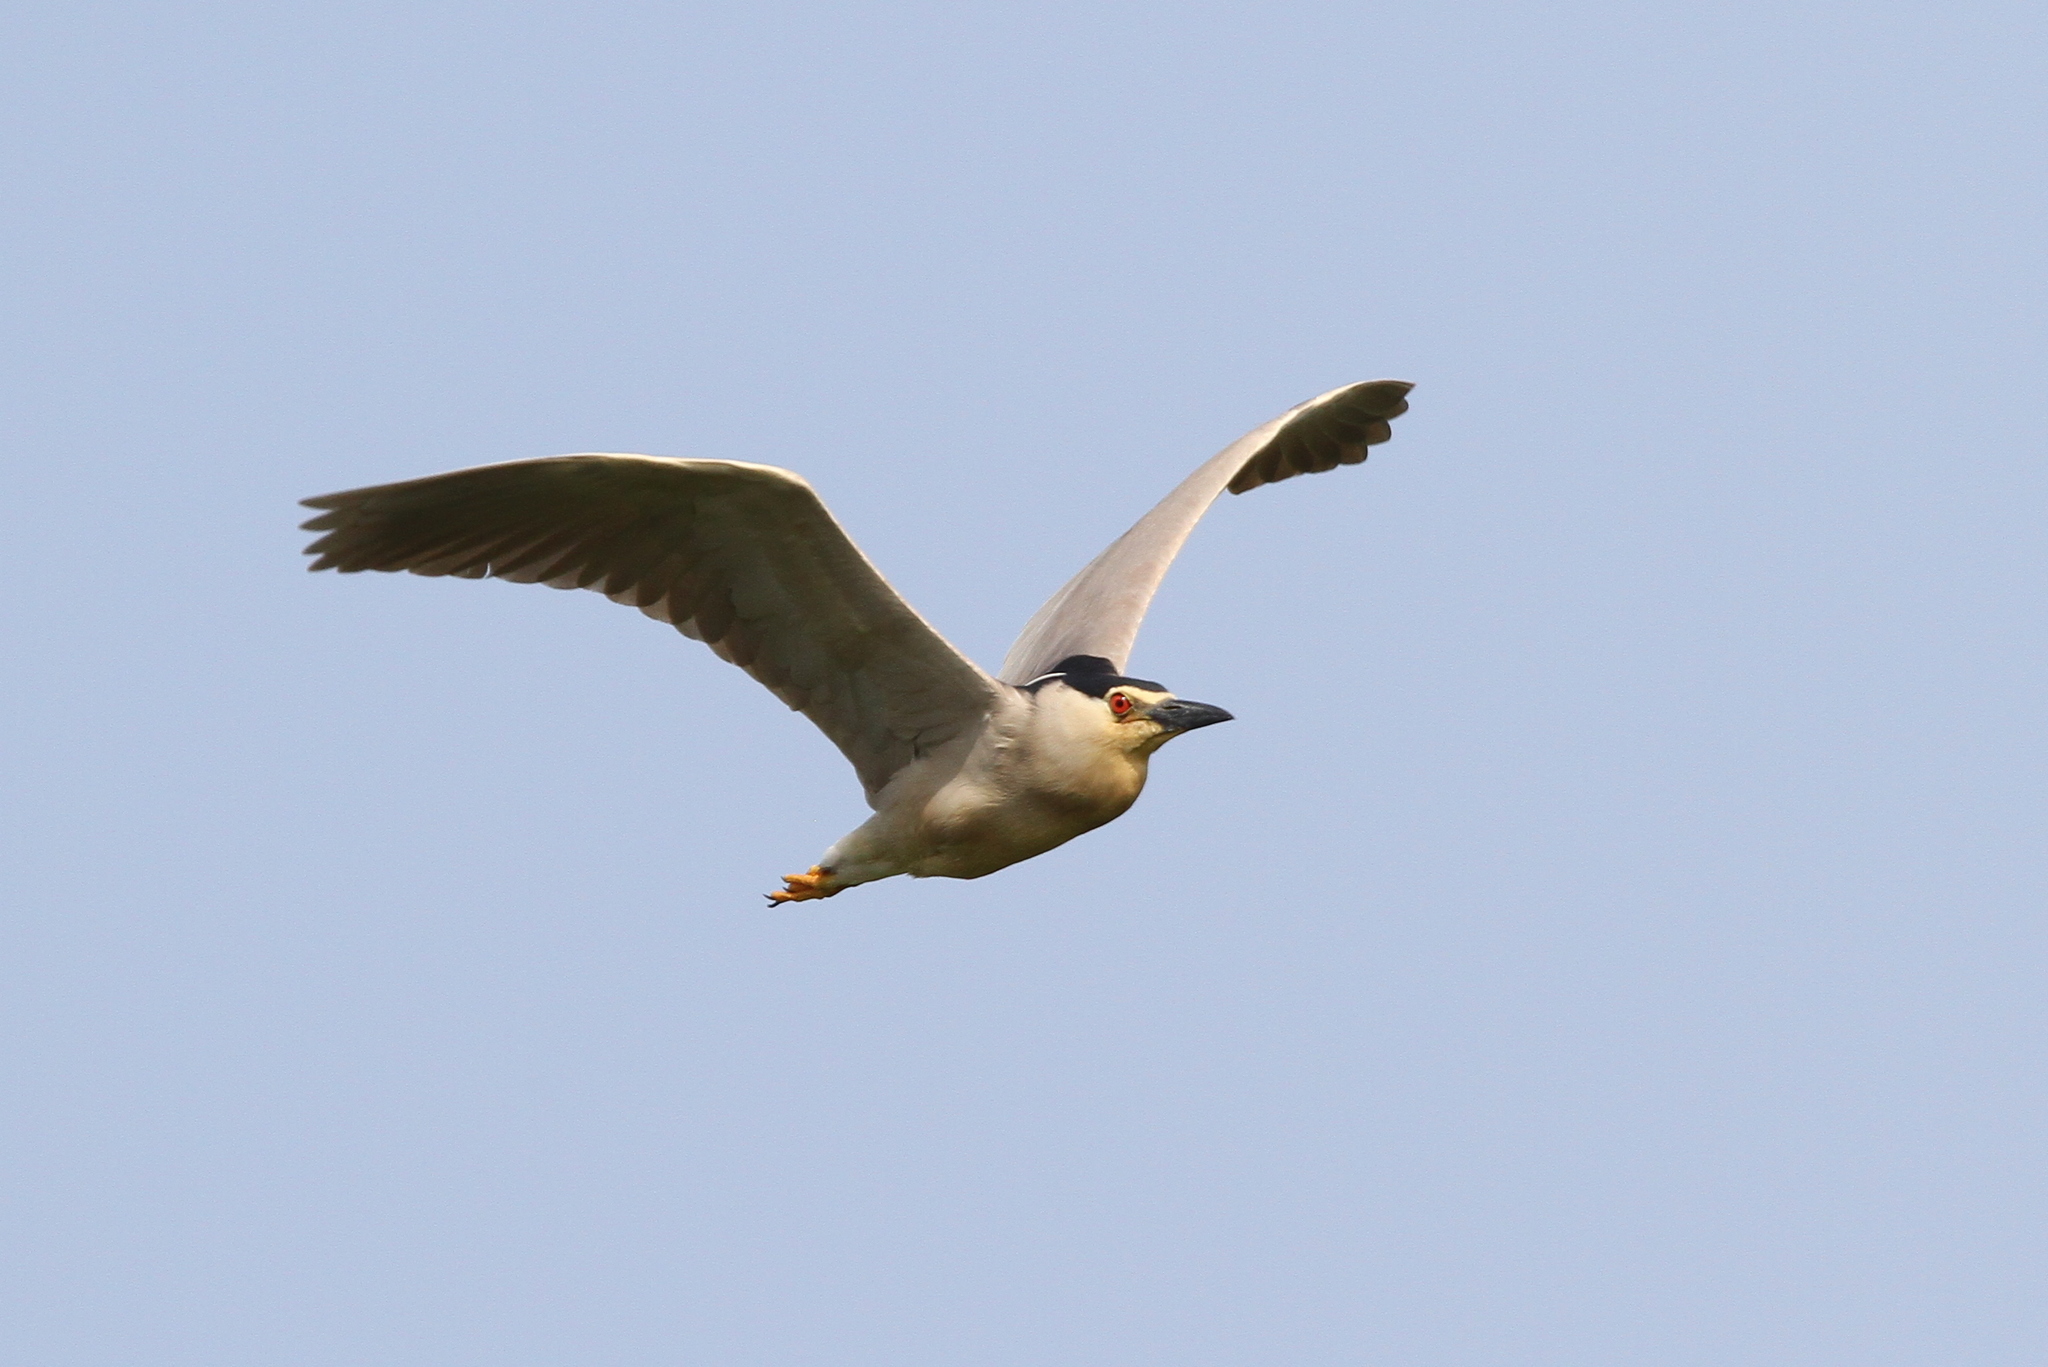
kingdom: Animalia
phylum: Chordata
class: Aves
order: Pelecaniformes
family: Ardeidae
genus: Nycticorax
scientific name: Nycticorax nycticorax
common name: Black-crowned night heron
